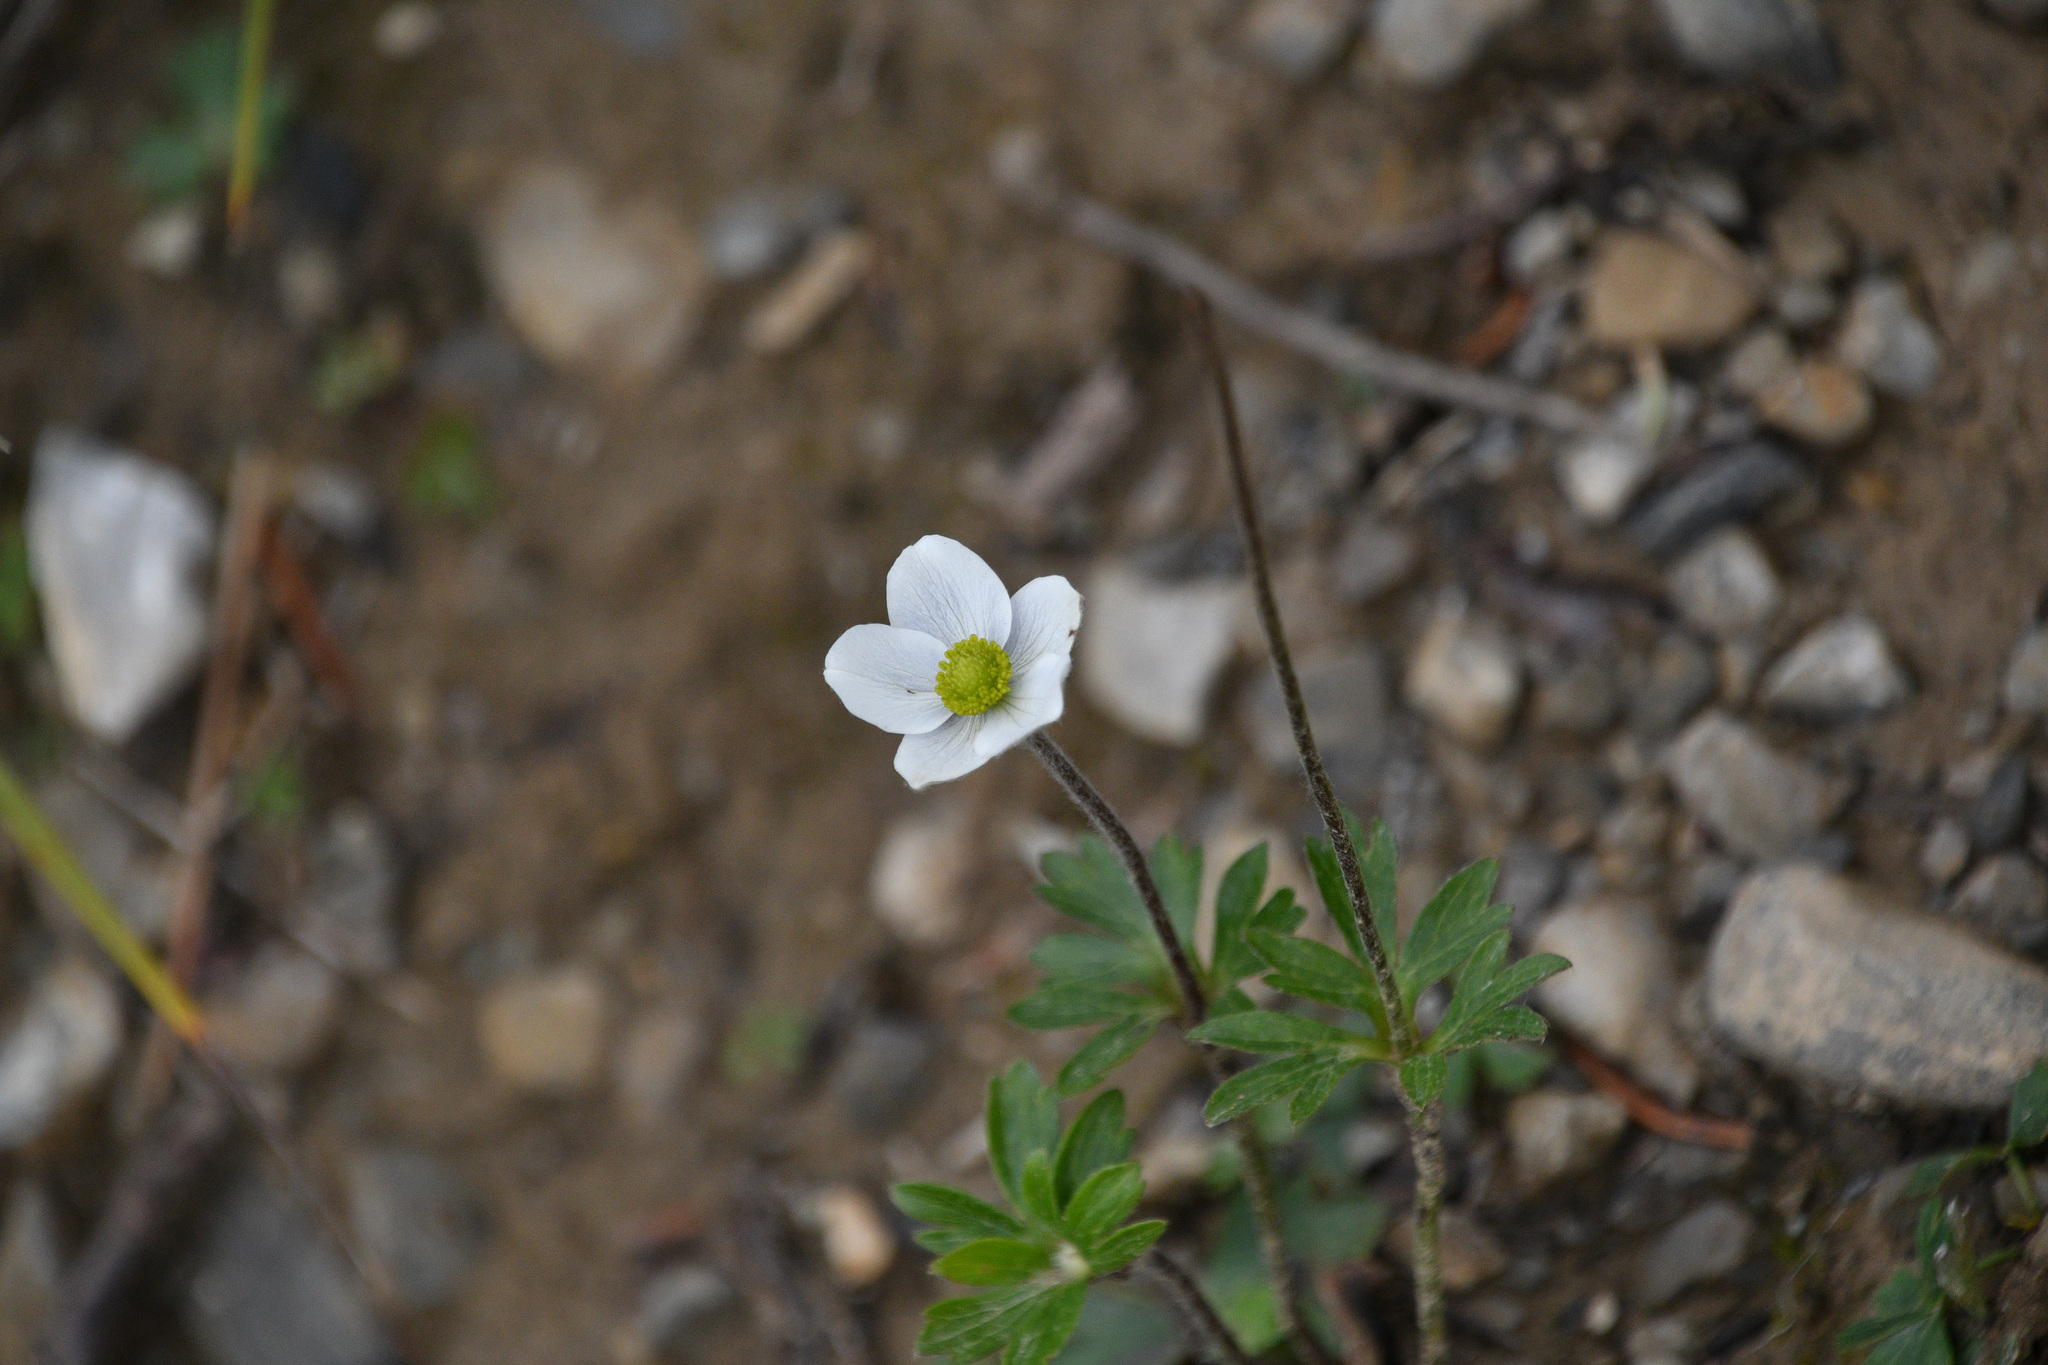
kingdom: Plantae
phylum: Tracheophyta
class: Magnoliopsida
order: Ranunculales
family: Ranunculaceae
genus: Anemone
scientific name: Anemone parviflora
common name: Northern anemone
